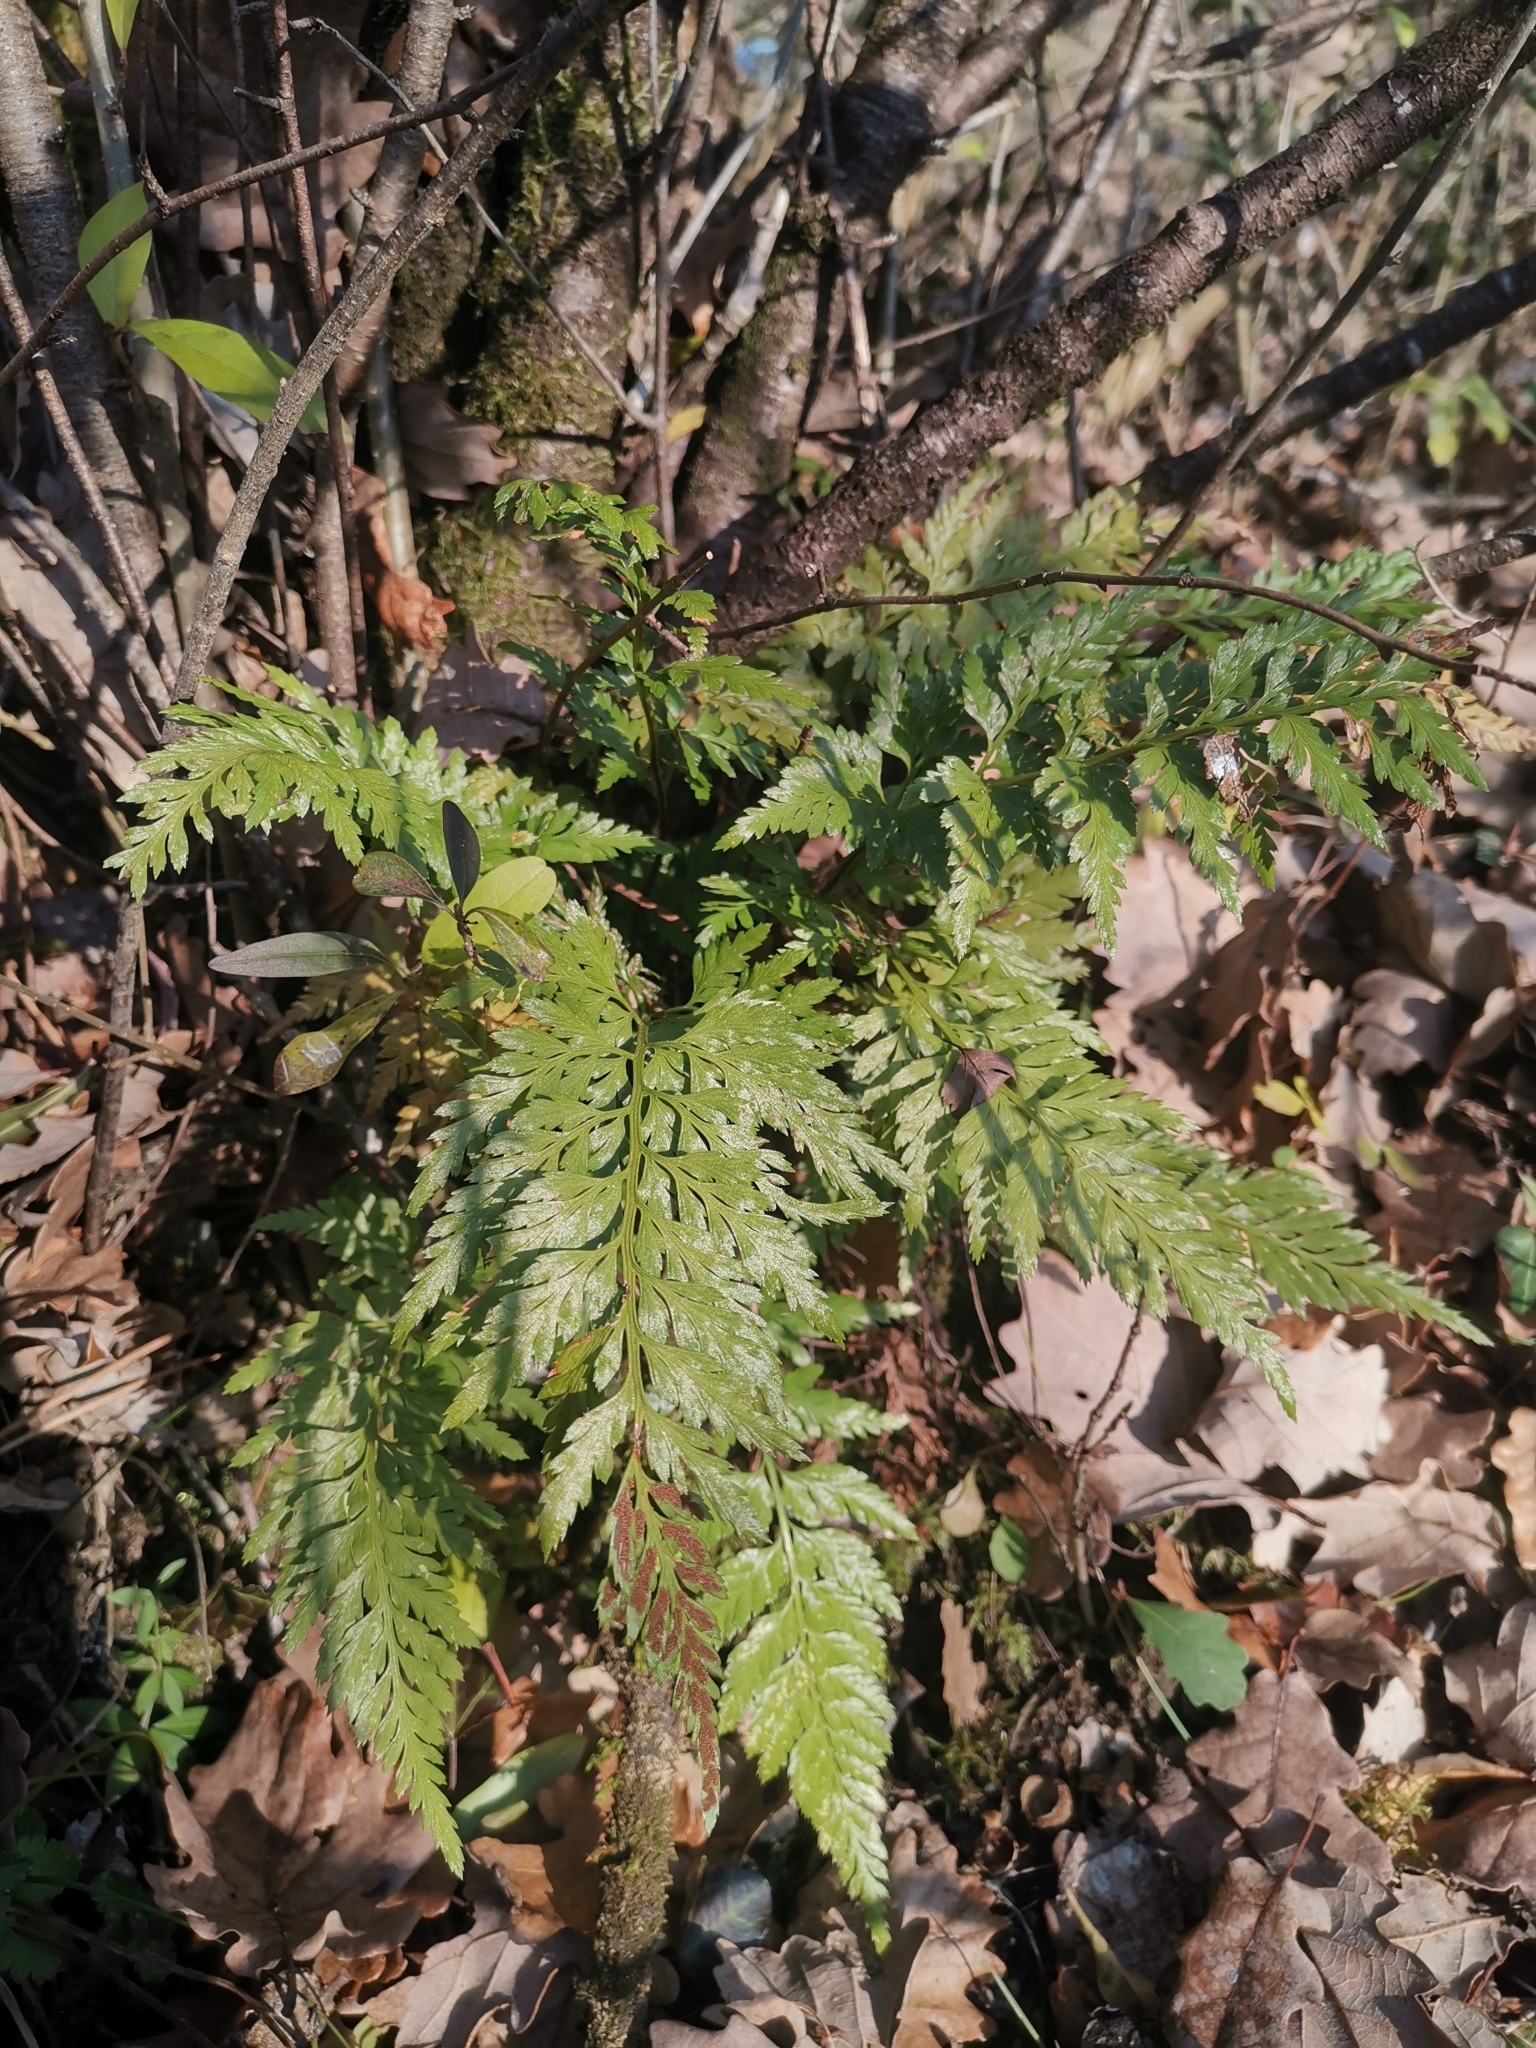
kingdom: Plantae
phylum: Tracheophyta
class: Polypodiopsida
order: Polypodiales
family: Aspleniaceae
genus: Asplenium
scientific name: Asplenium adiantum-nigrum
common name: Black spleenwort
